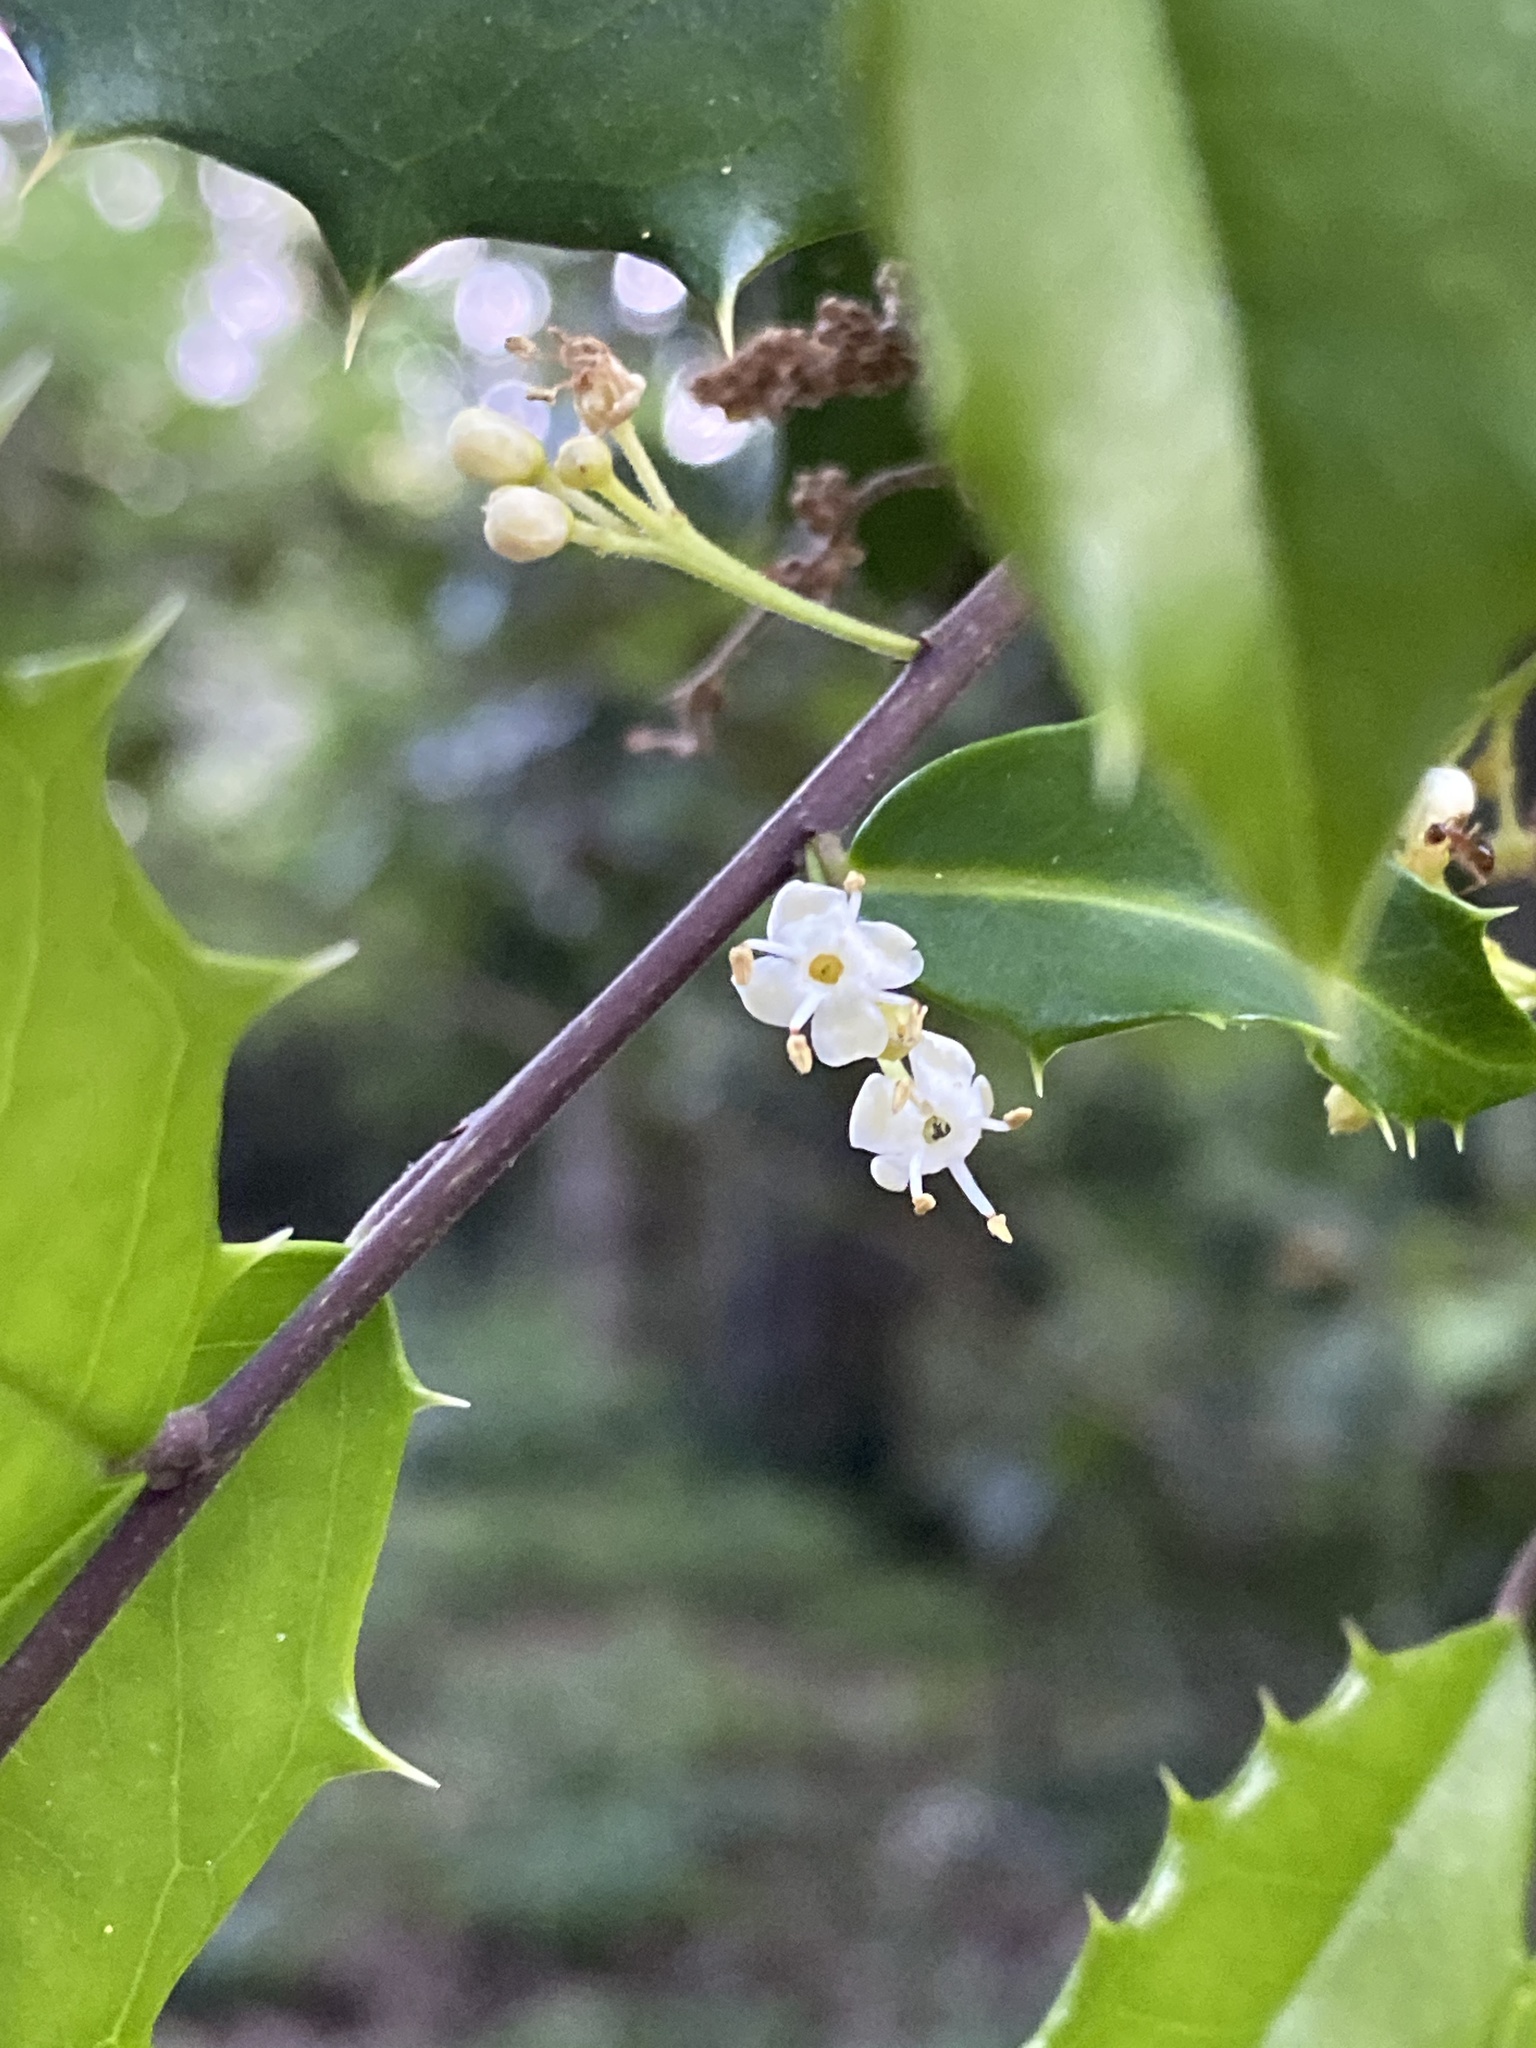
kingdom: Plantae
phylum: Tracheophyta
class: Magnoliopsida
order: Aquifoliales
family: Aquifoliaceae
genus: Ilex
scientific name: Ilex opaca
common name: American holly
